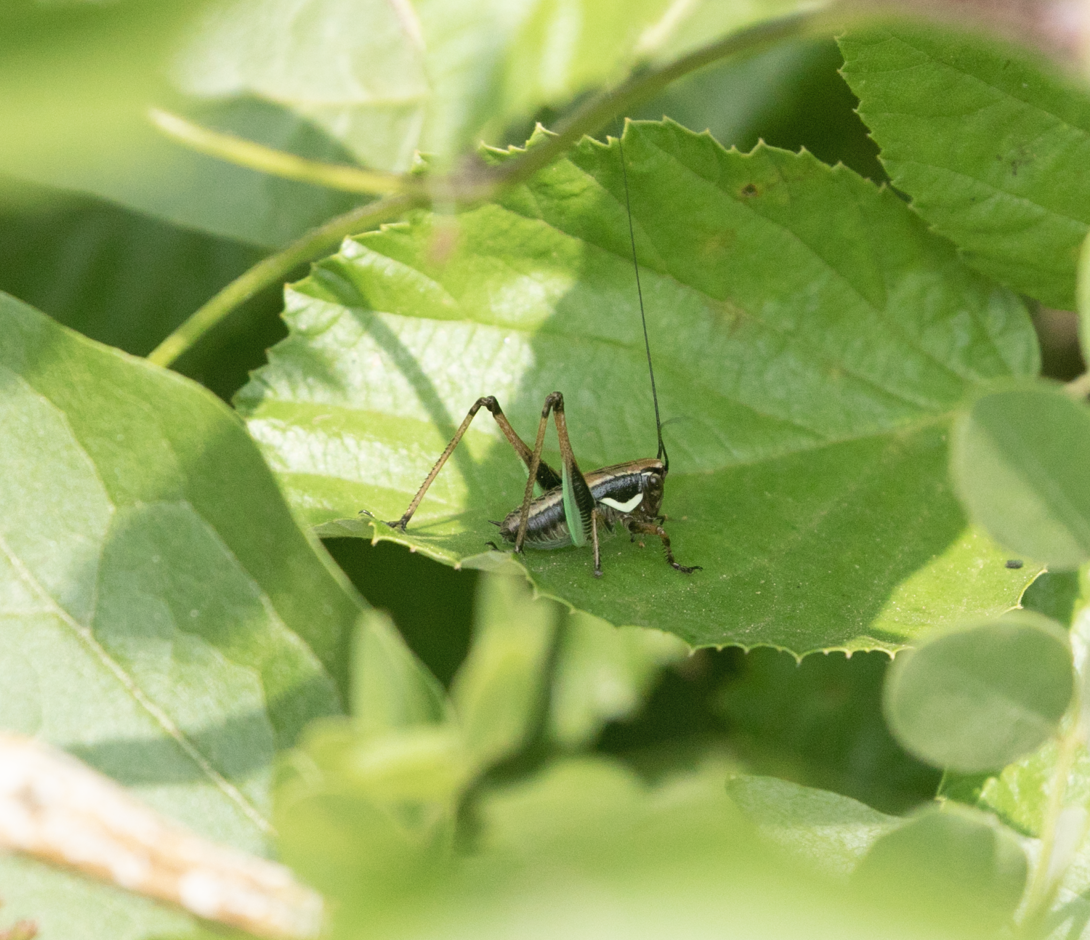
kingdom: Animalia
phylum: Arthropoda
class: Insecta
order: Orthoptera
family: Tettigoniidae
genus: Eupholidoptera
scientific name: Eupholidoptera chabrieri
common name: Chabrier's marbled bush-cricket
